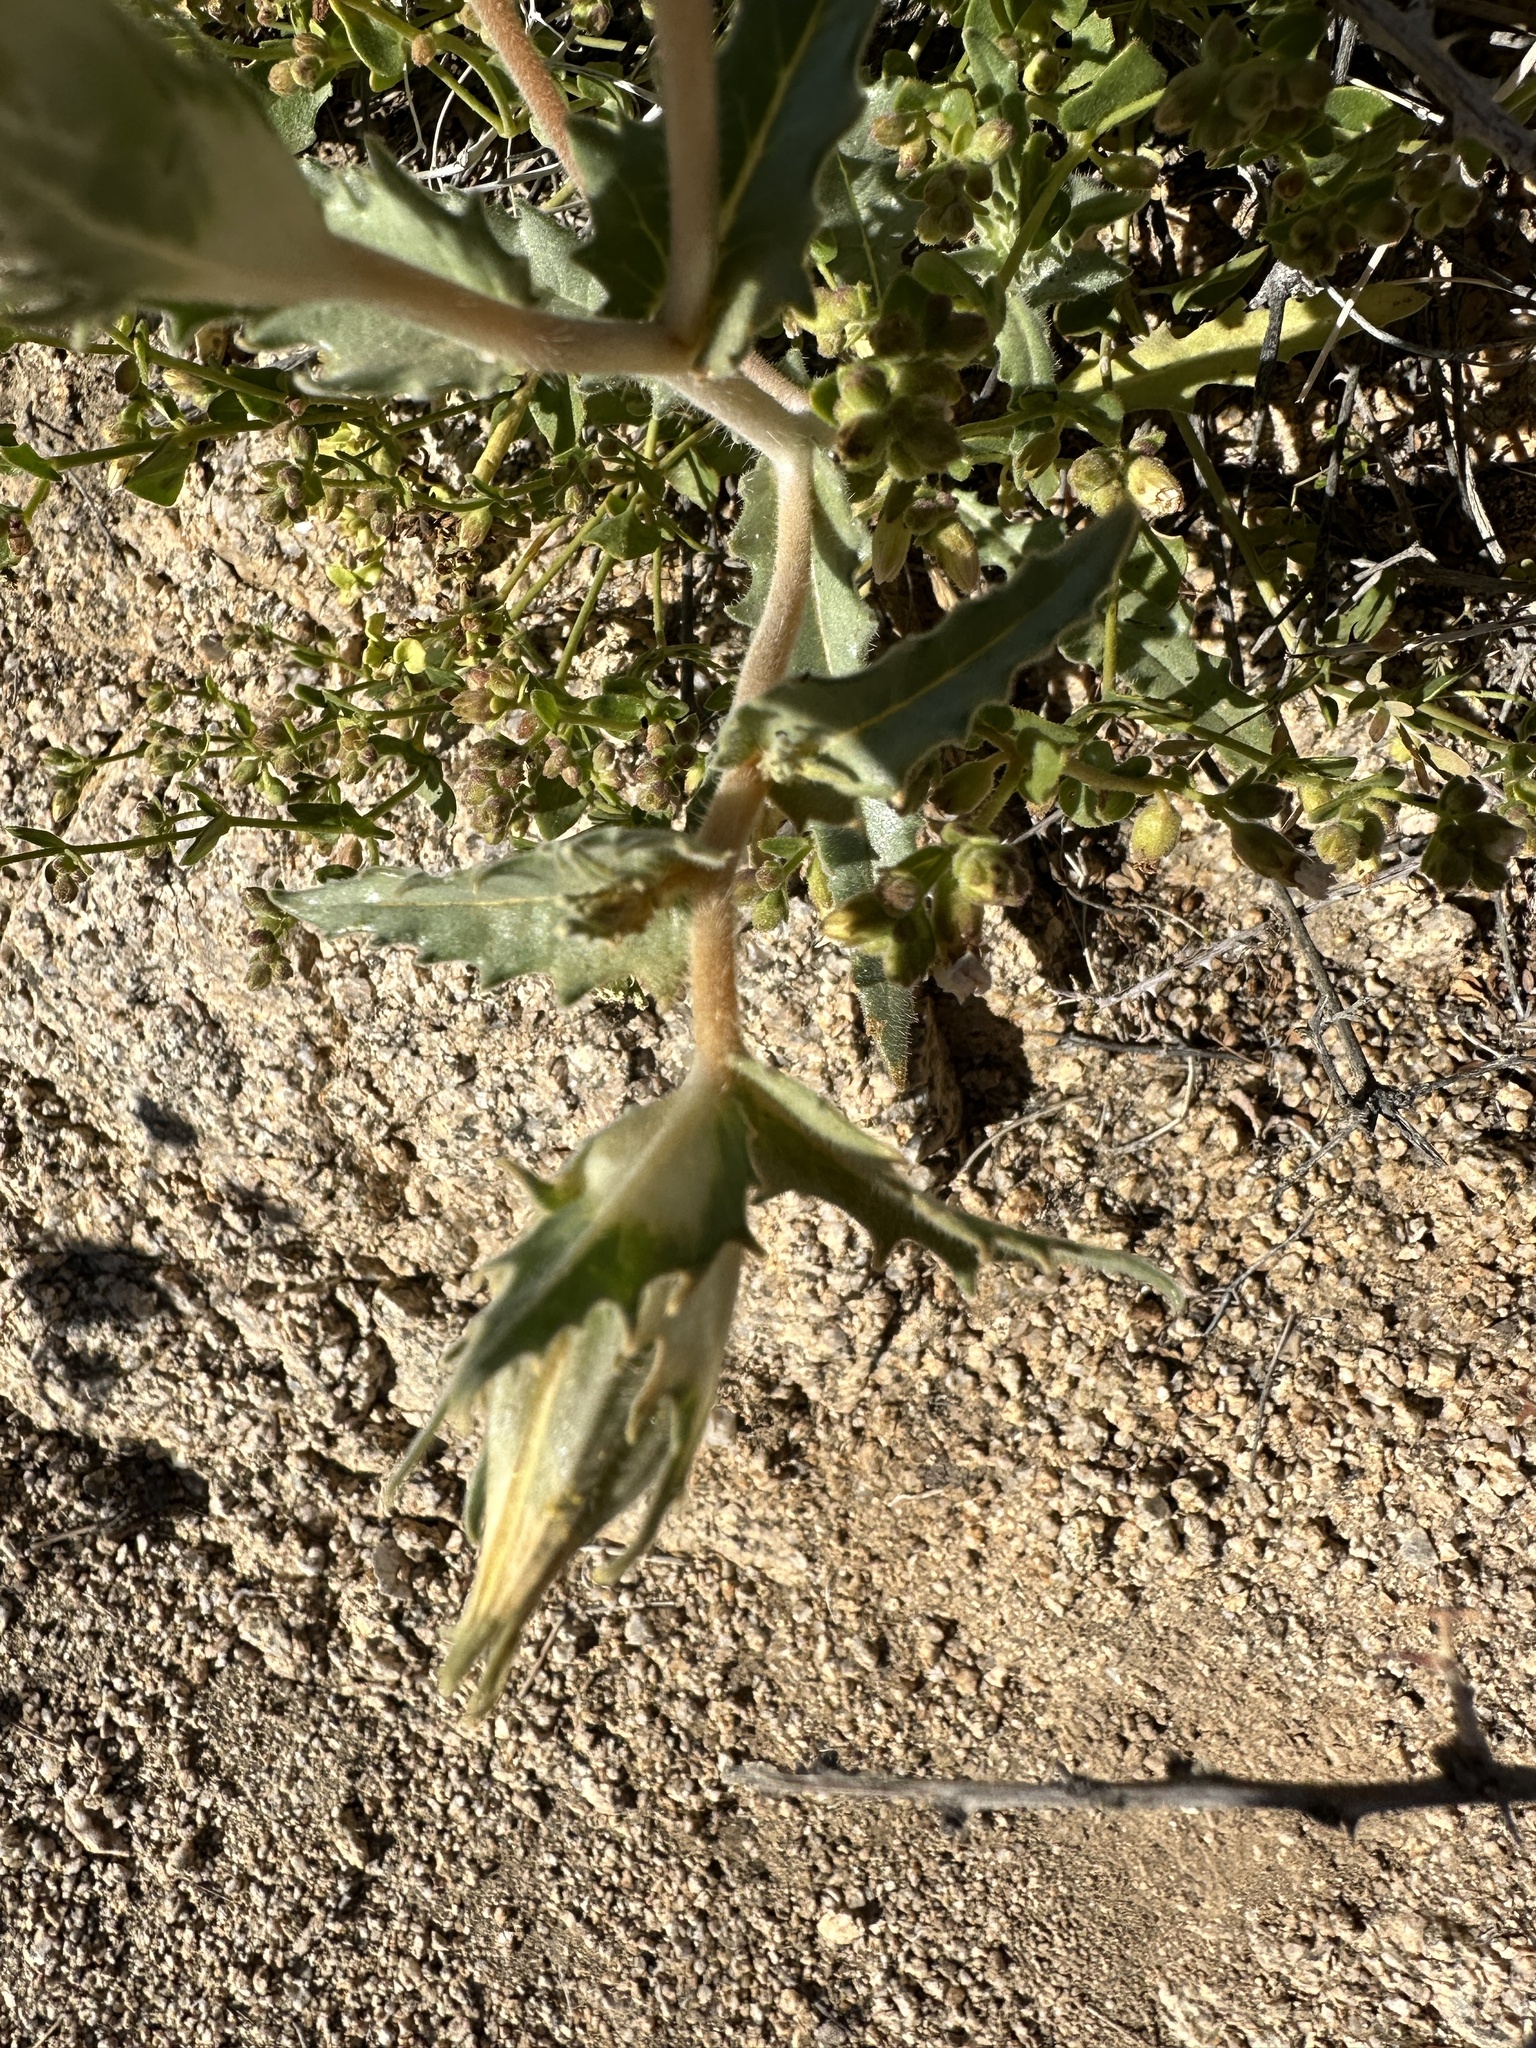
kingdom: Plantae
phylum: Tracheophyta
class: Magnoliopsida
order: Cornales
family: Loasaceae
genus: Mentzelia
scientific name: Mentzelia involucrata
